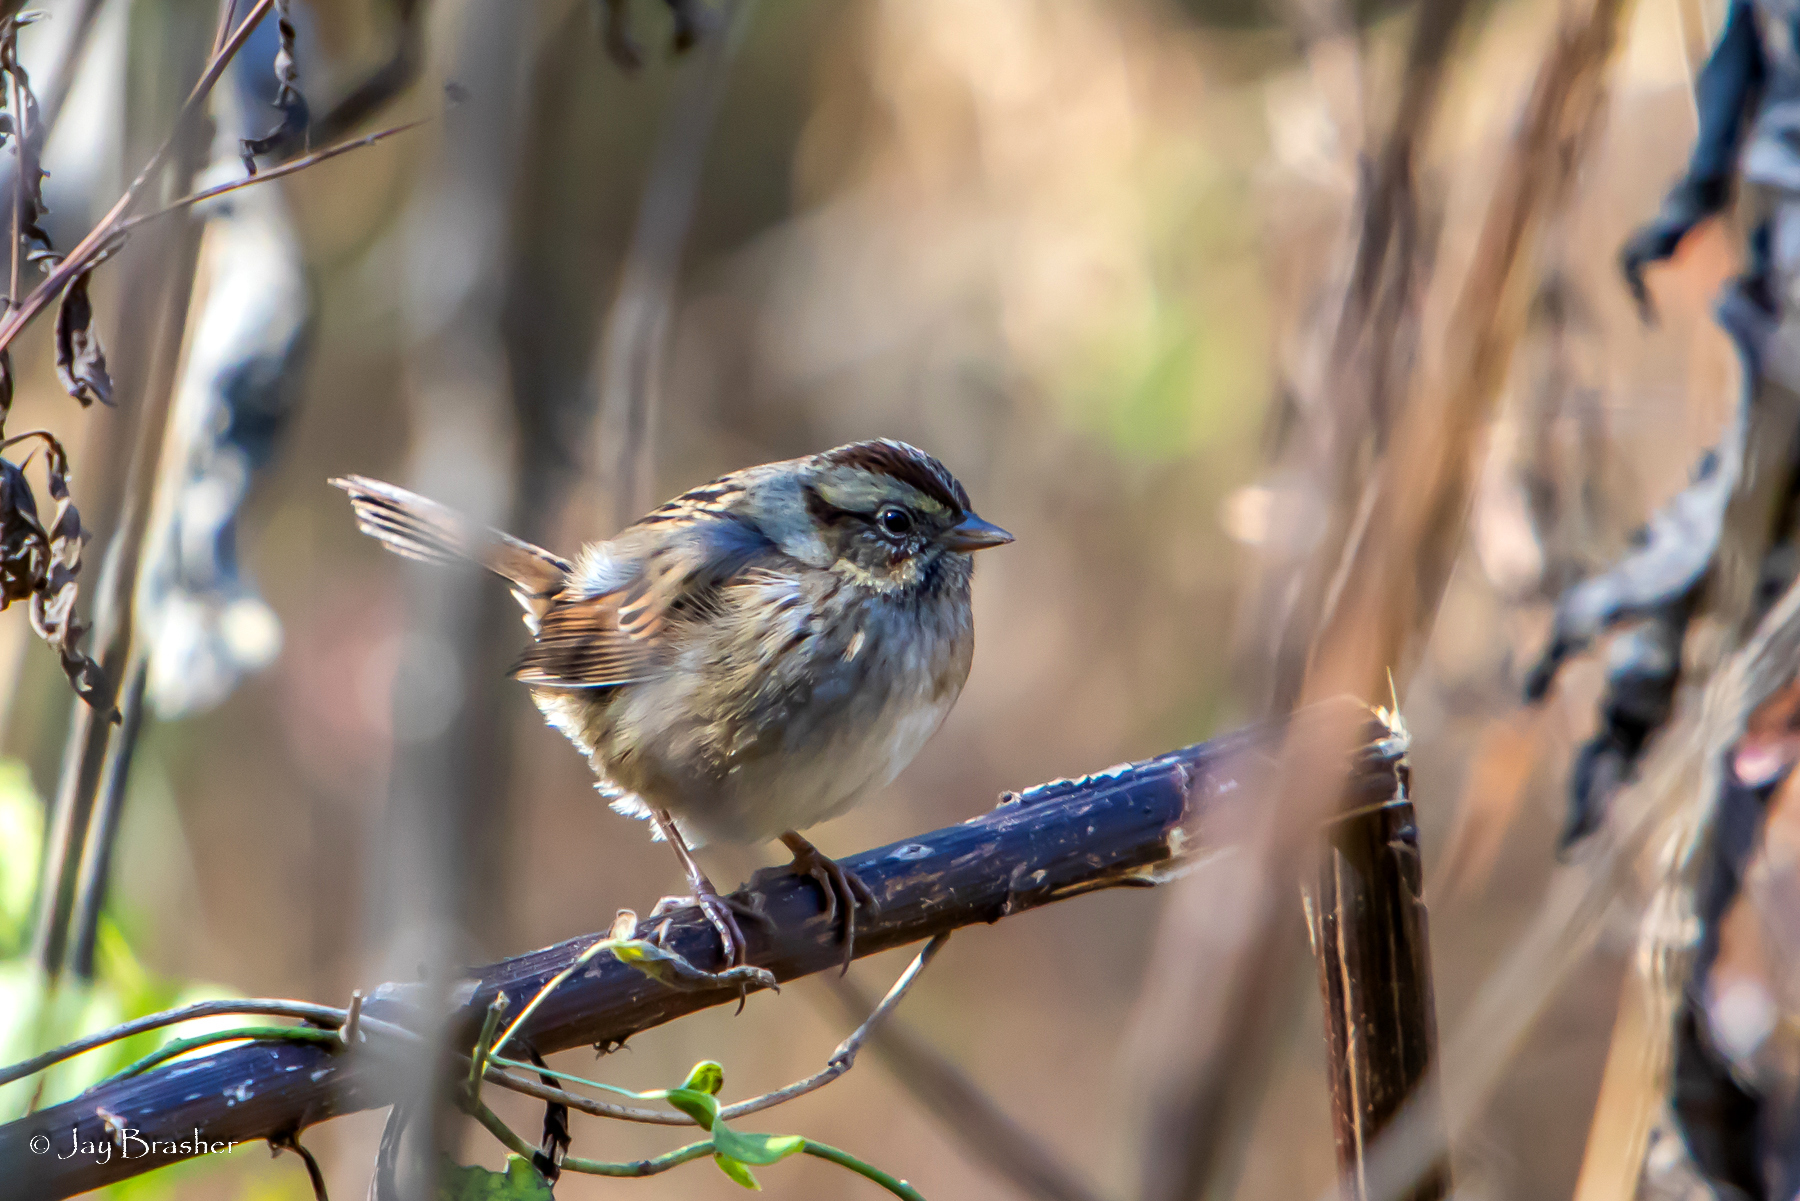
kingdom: Animalia
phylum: Chordata
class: Aves
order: Passeriformes
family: Passerellidae
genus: Melospiza
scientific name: Melospiza georgiana
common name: Swamp sparrow
